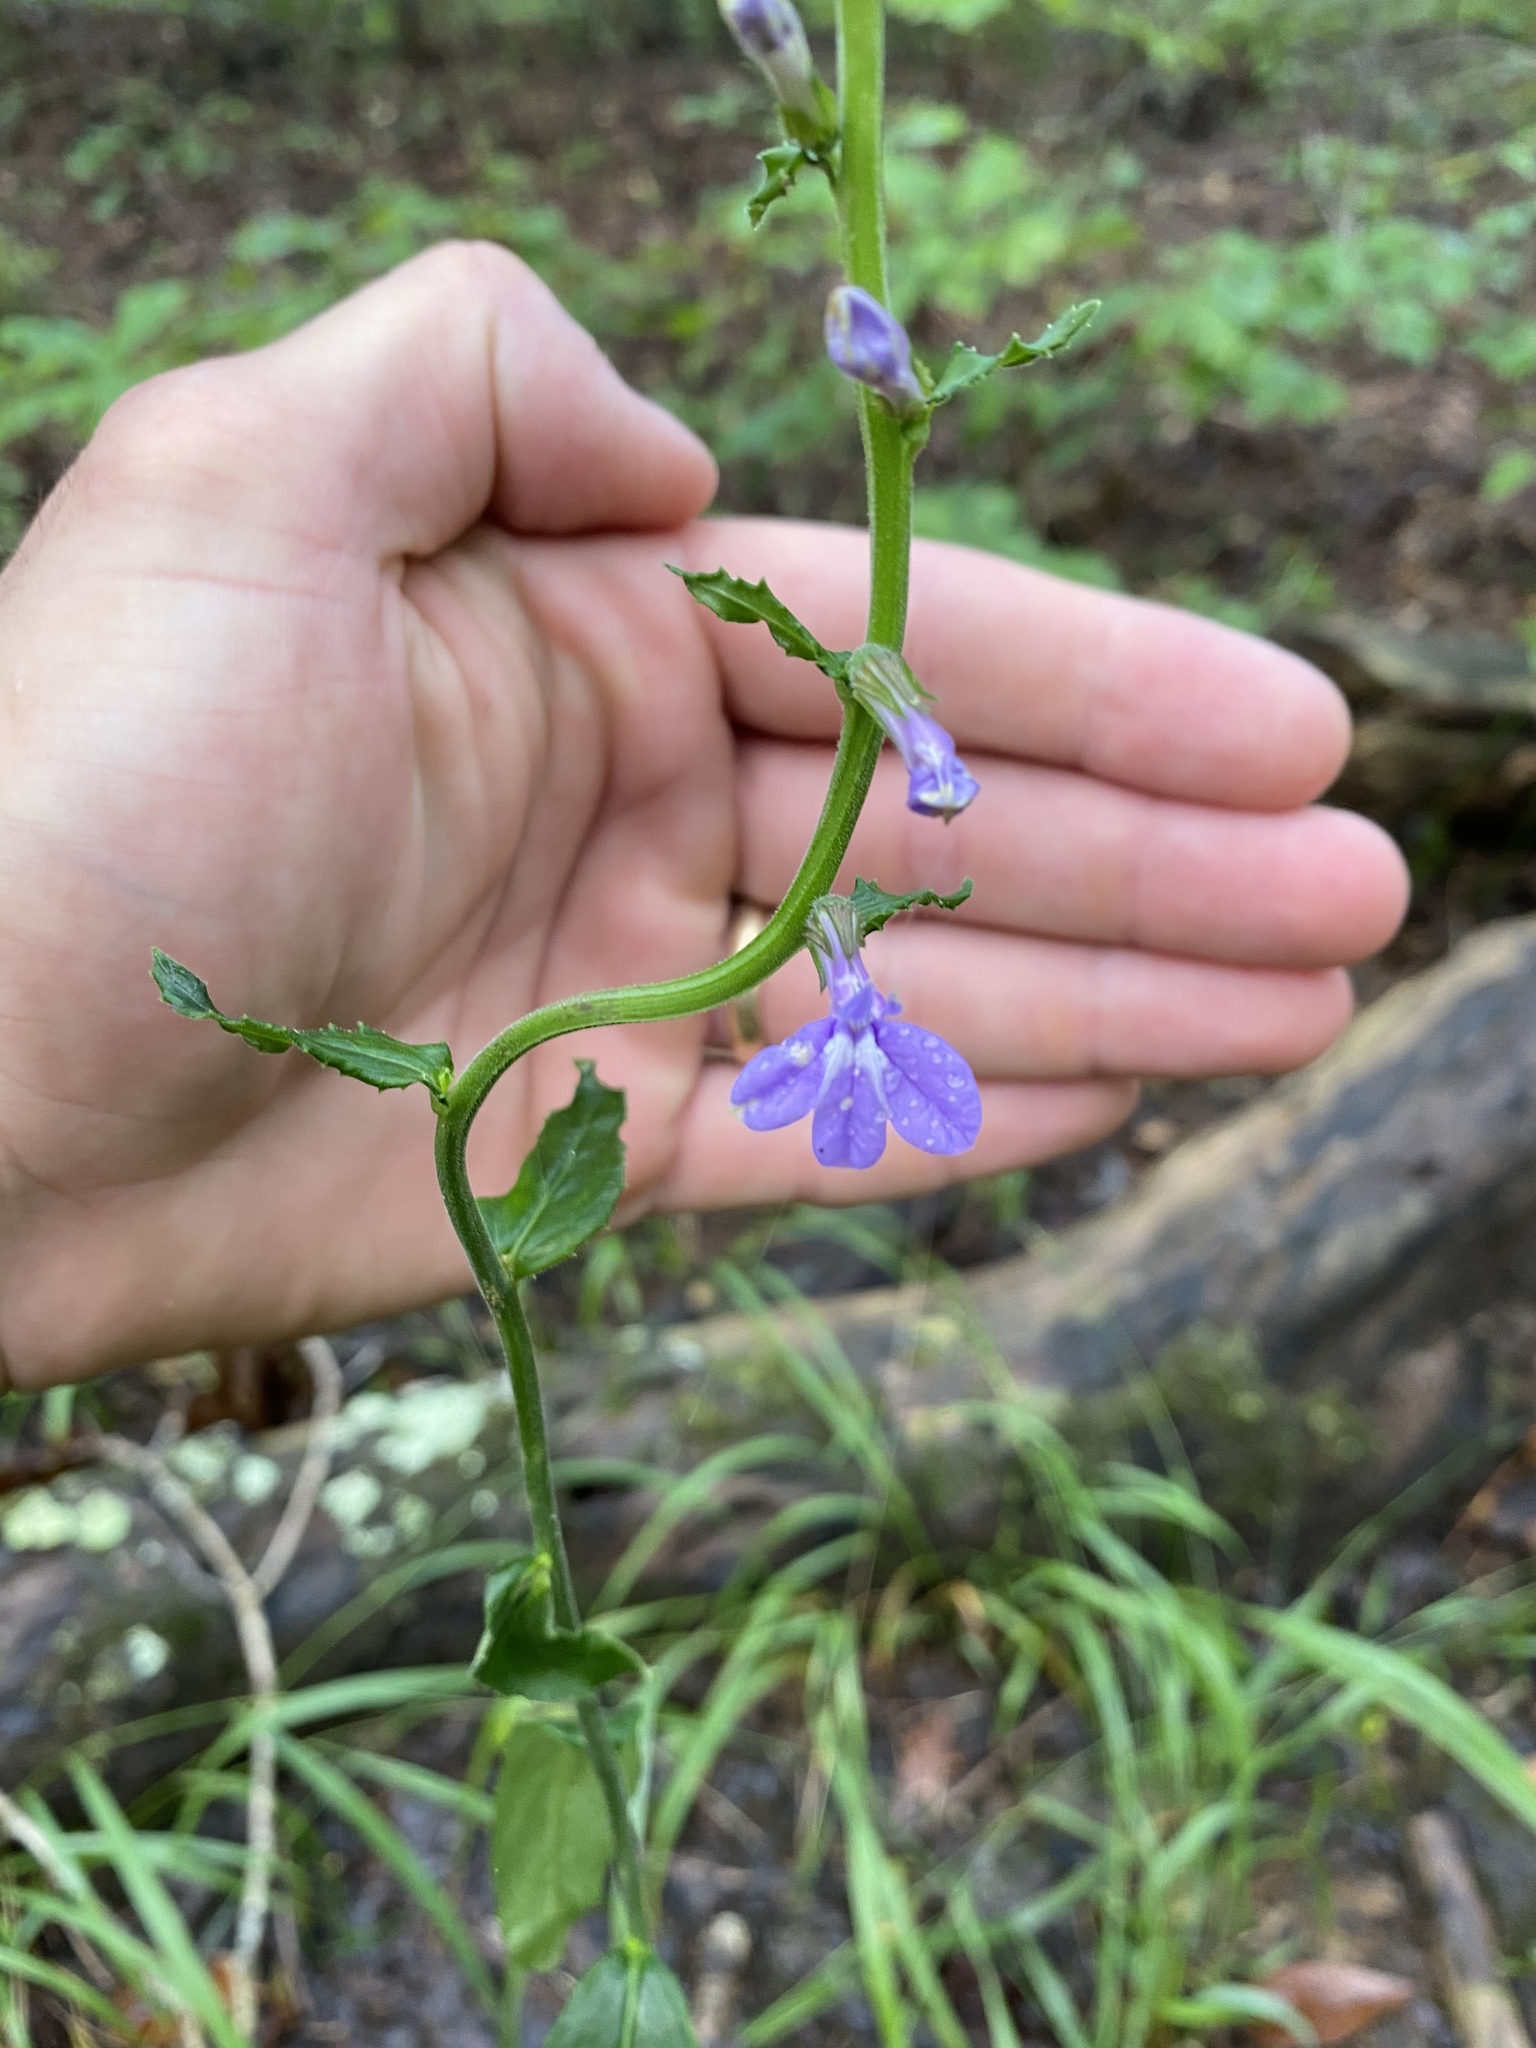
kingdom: Plantae
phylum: Tracheophyta
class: Magnoliopsida
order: Asterales
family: Campanulaceae
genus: Lobelia
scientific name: Lobelia puberula
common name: Purple dewdrop
